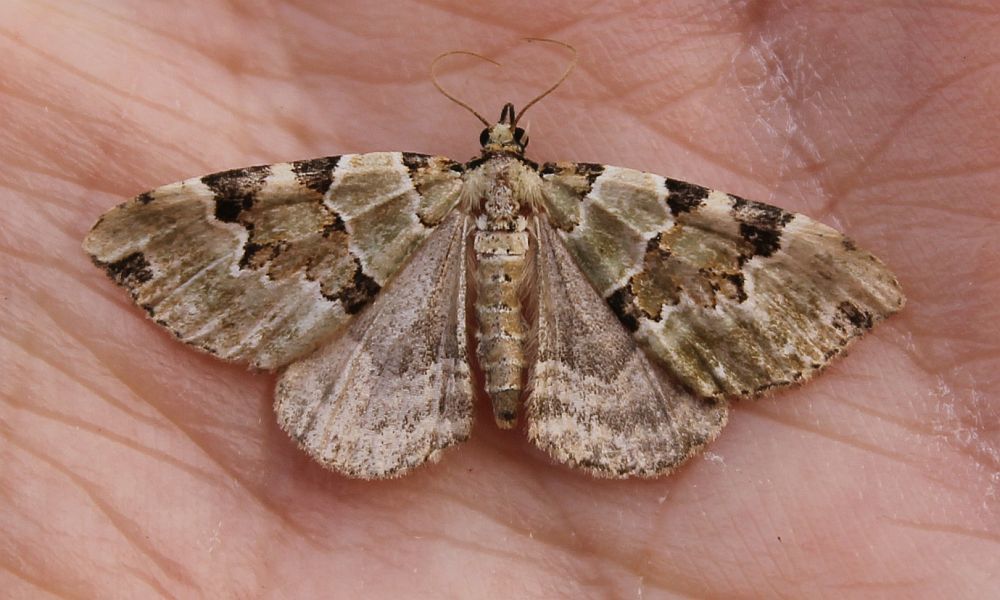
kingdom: Animalia
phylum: Arthropoda
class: Insecta
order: Lepidoptera
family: Geometridae
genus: Colostygia
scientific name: Colostygia pectinataria
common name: Green carpet
